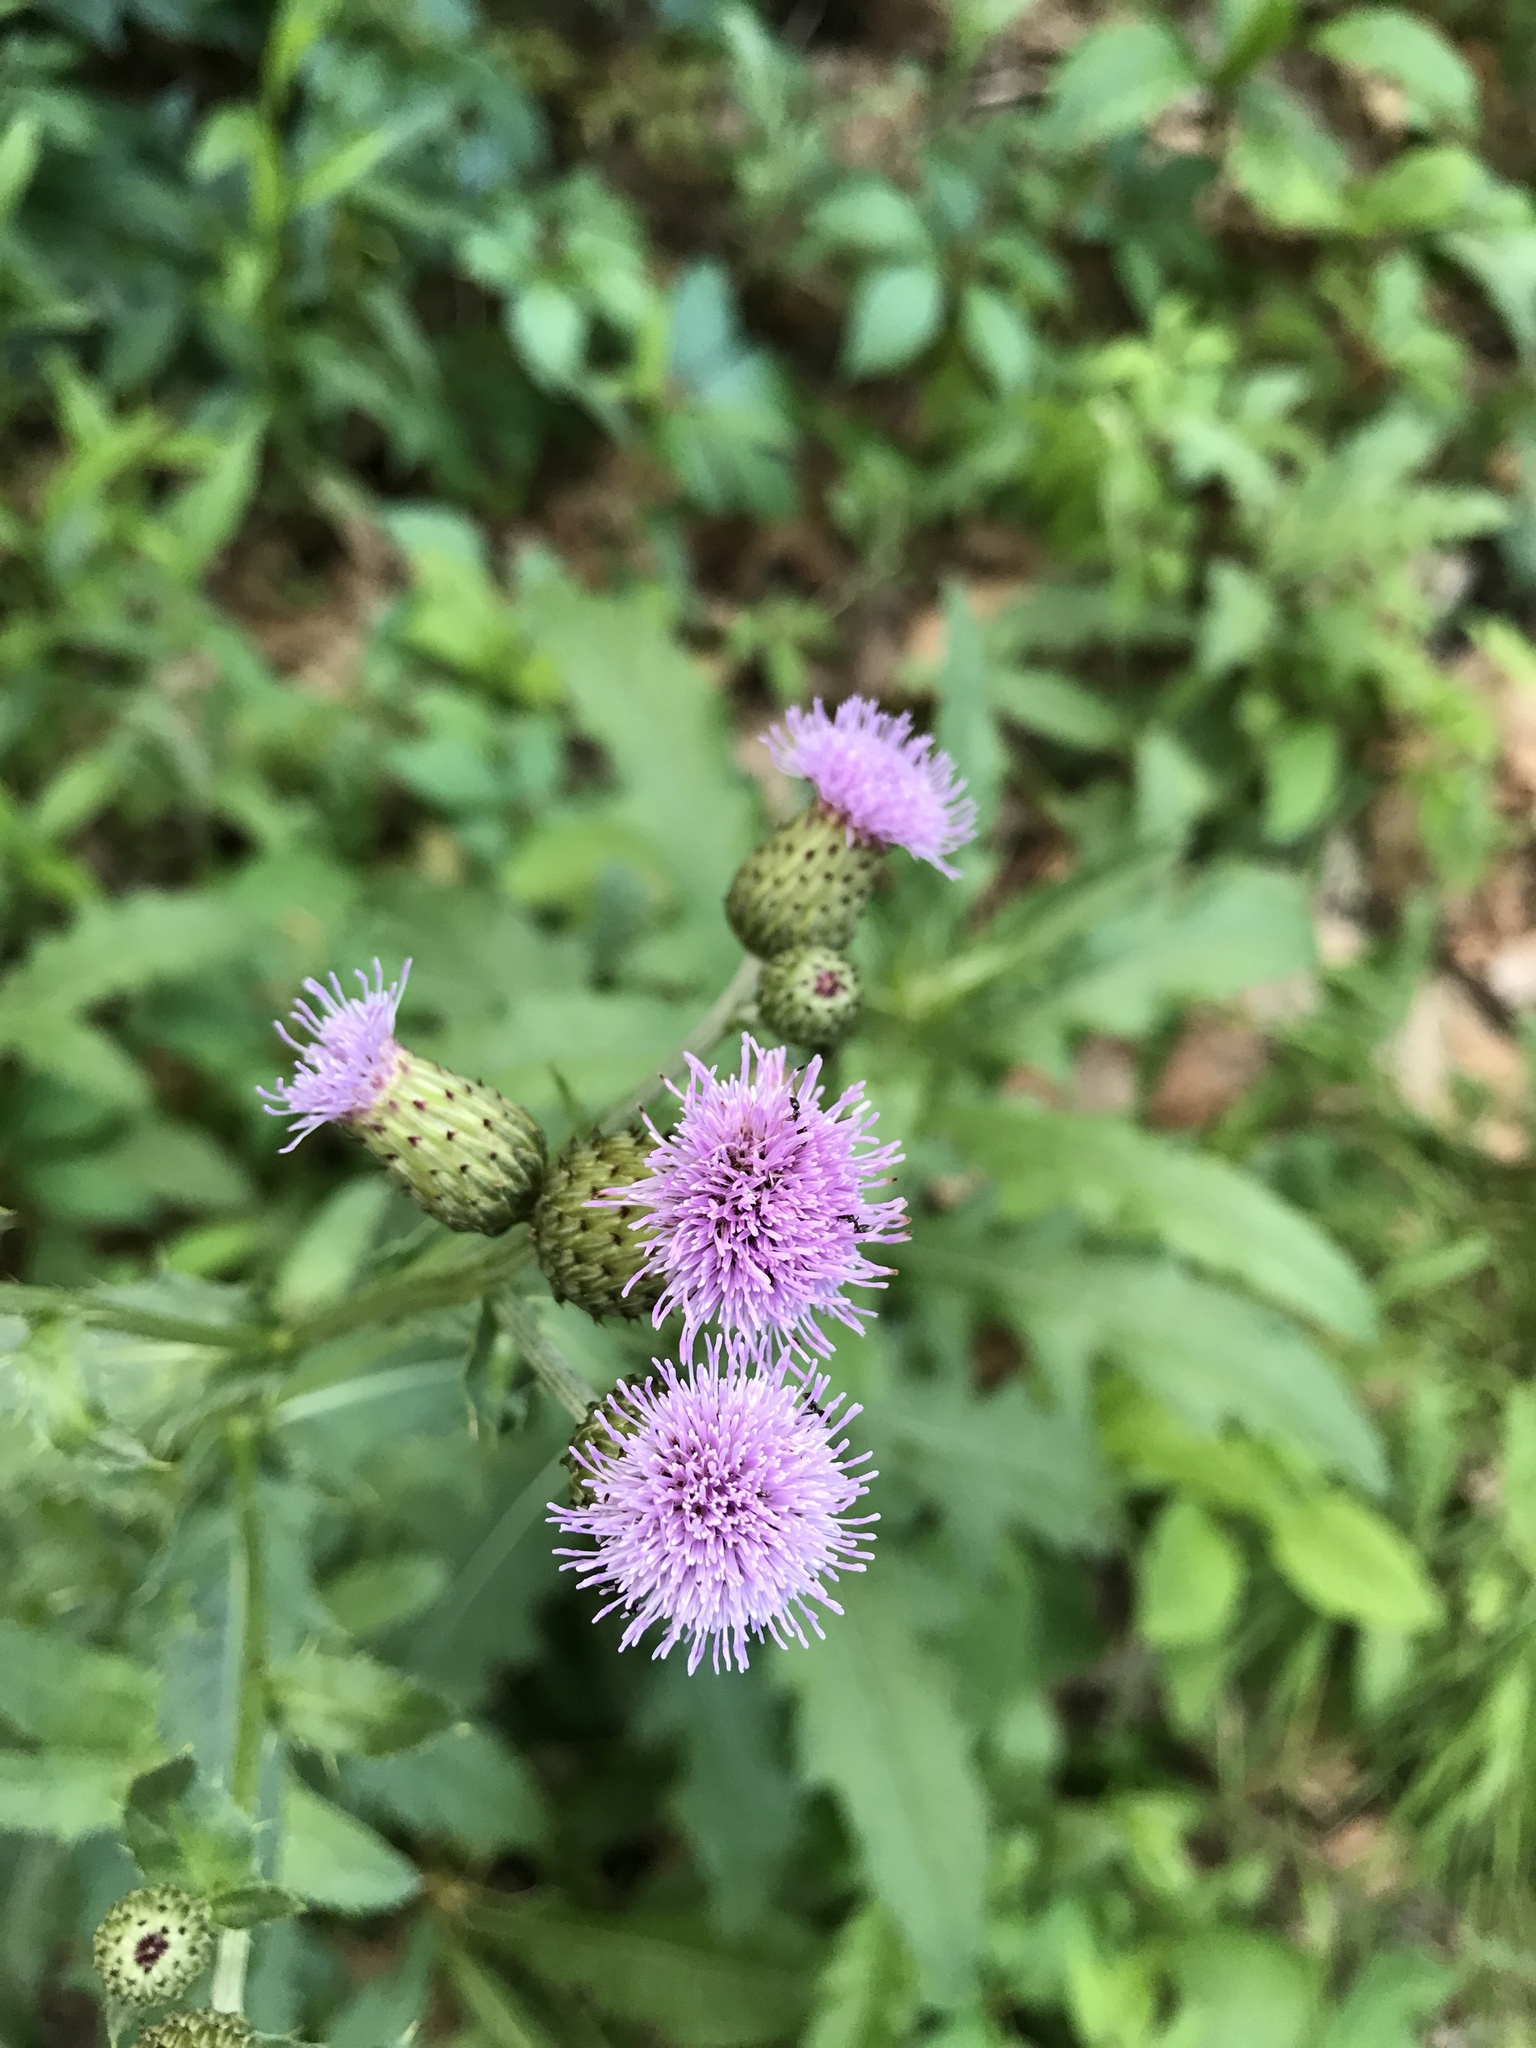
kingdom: Plantae
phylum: Tracheophyta
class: Magnoliopsida
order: Asterales
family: Asteraceae
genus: Cirsium
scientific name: Cirsium arvense
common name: Creeping thistle
